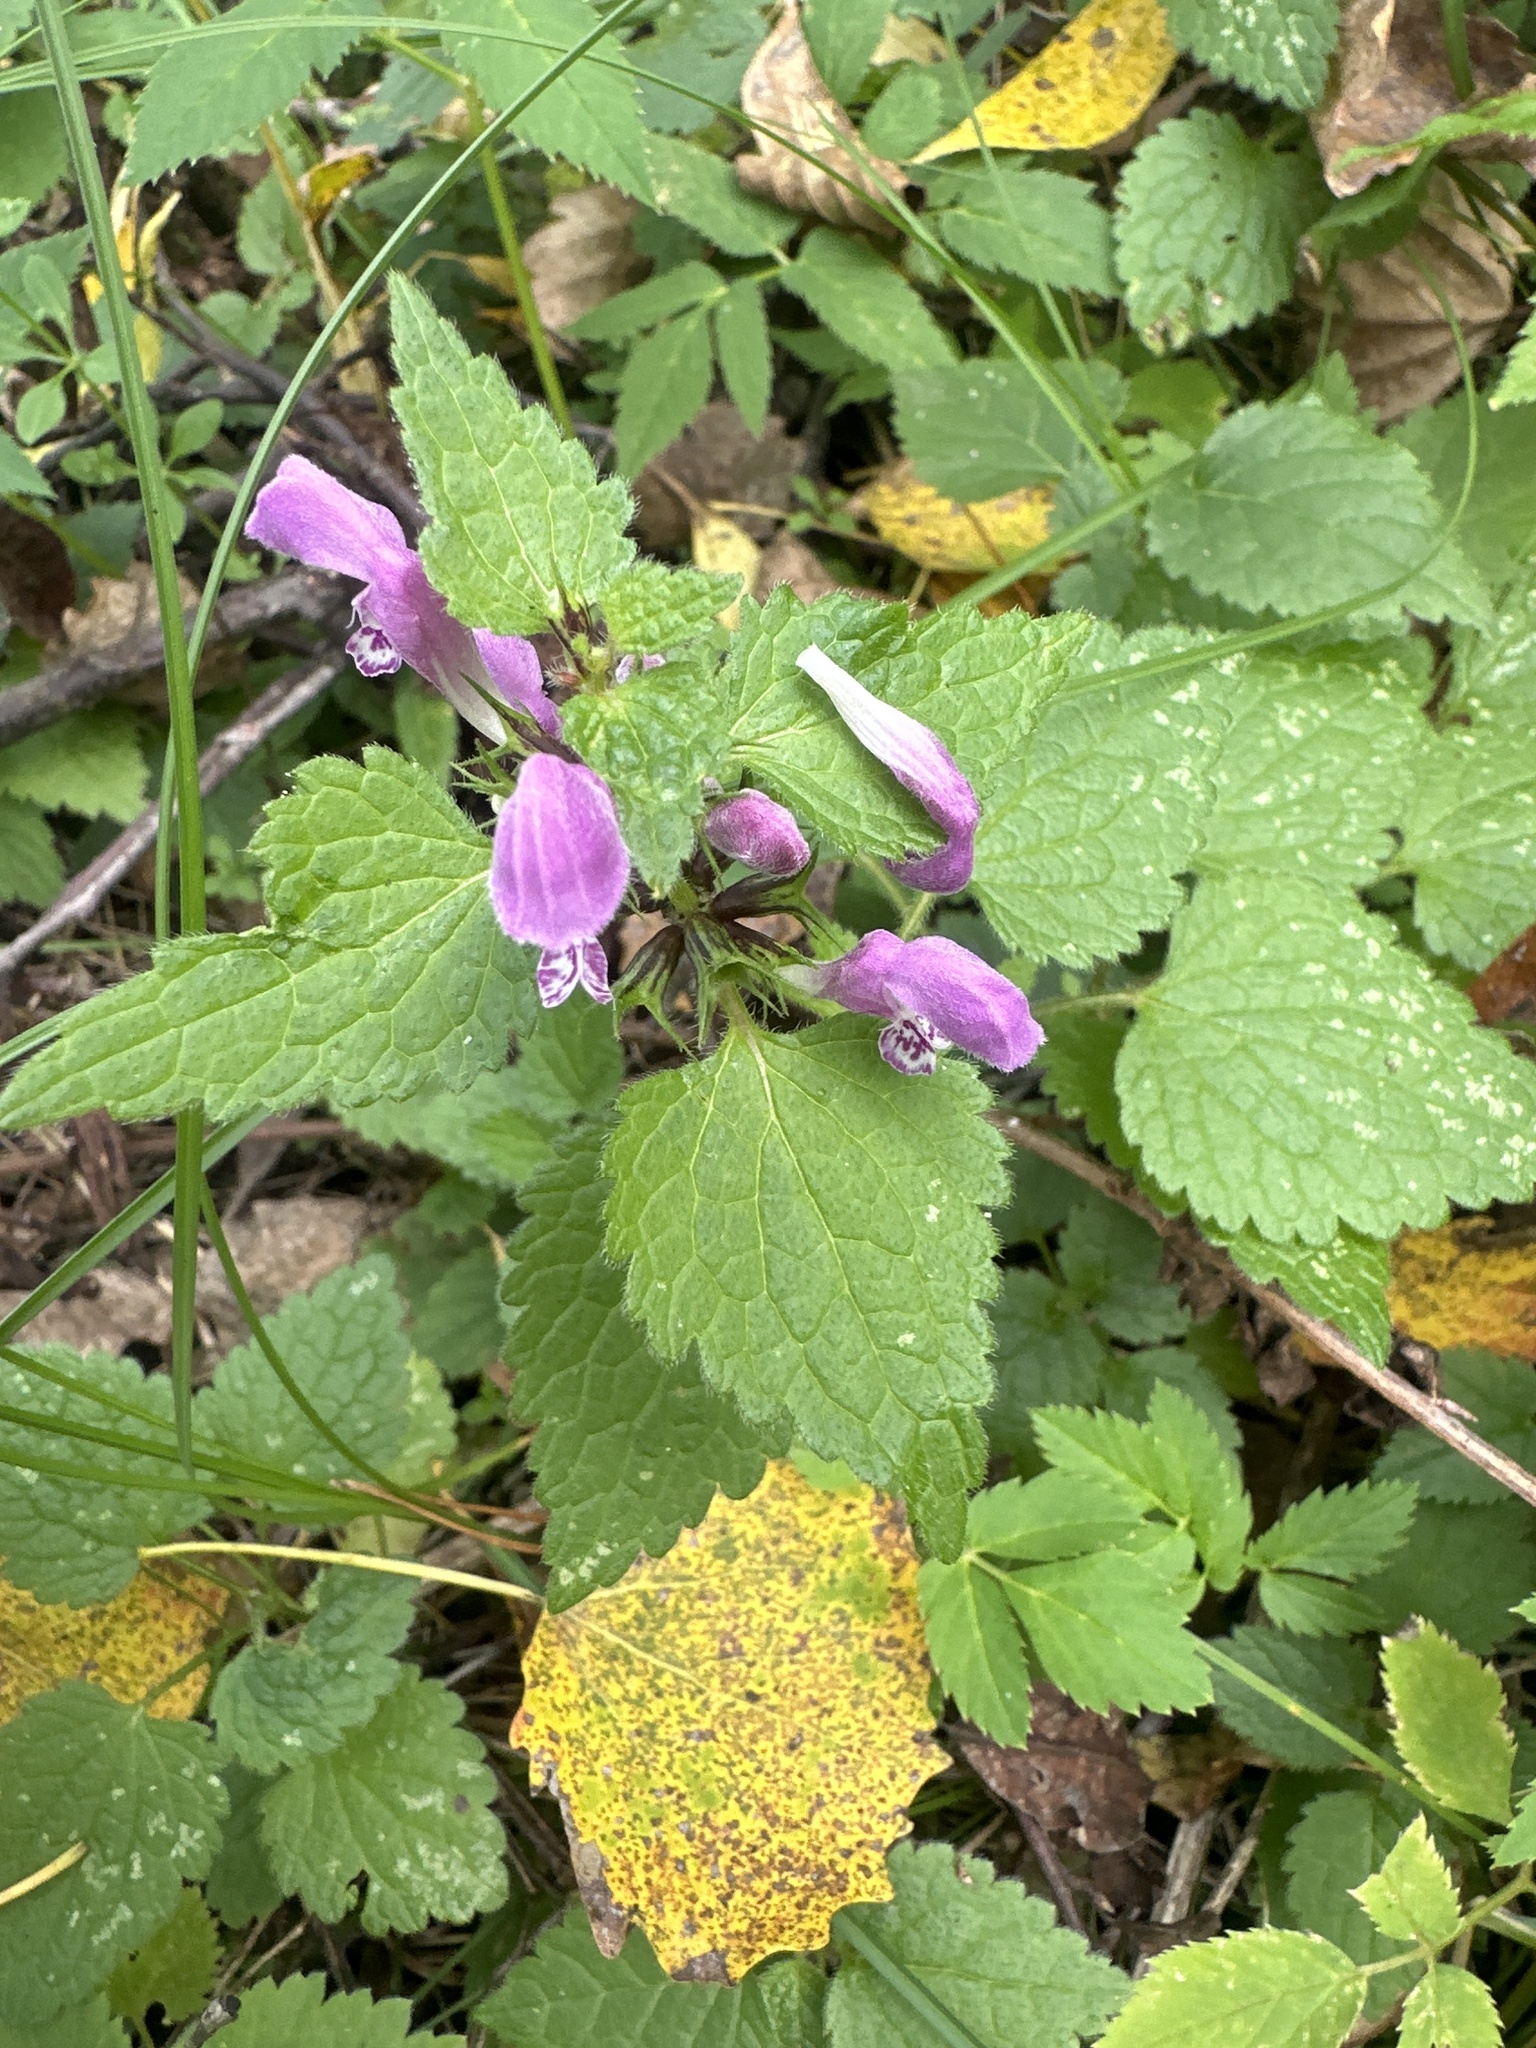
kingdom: Plantae
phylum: Tracheophyta
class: Magnoliopsida
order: Lamiales
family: Lamiaceae
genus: Lamium
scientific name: Lamium maculatum
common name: Spotted dead-nettle
